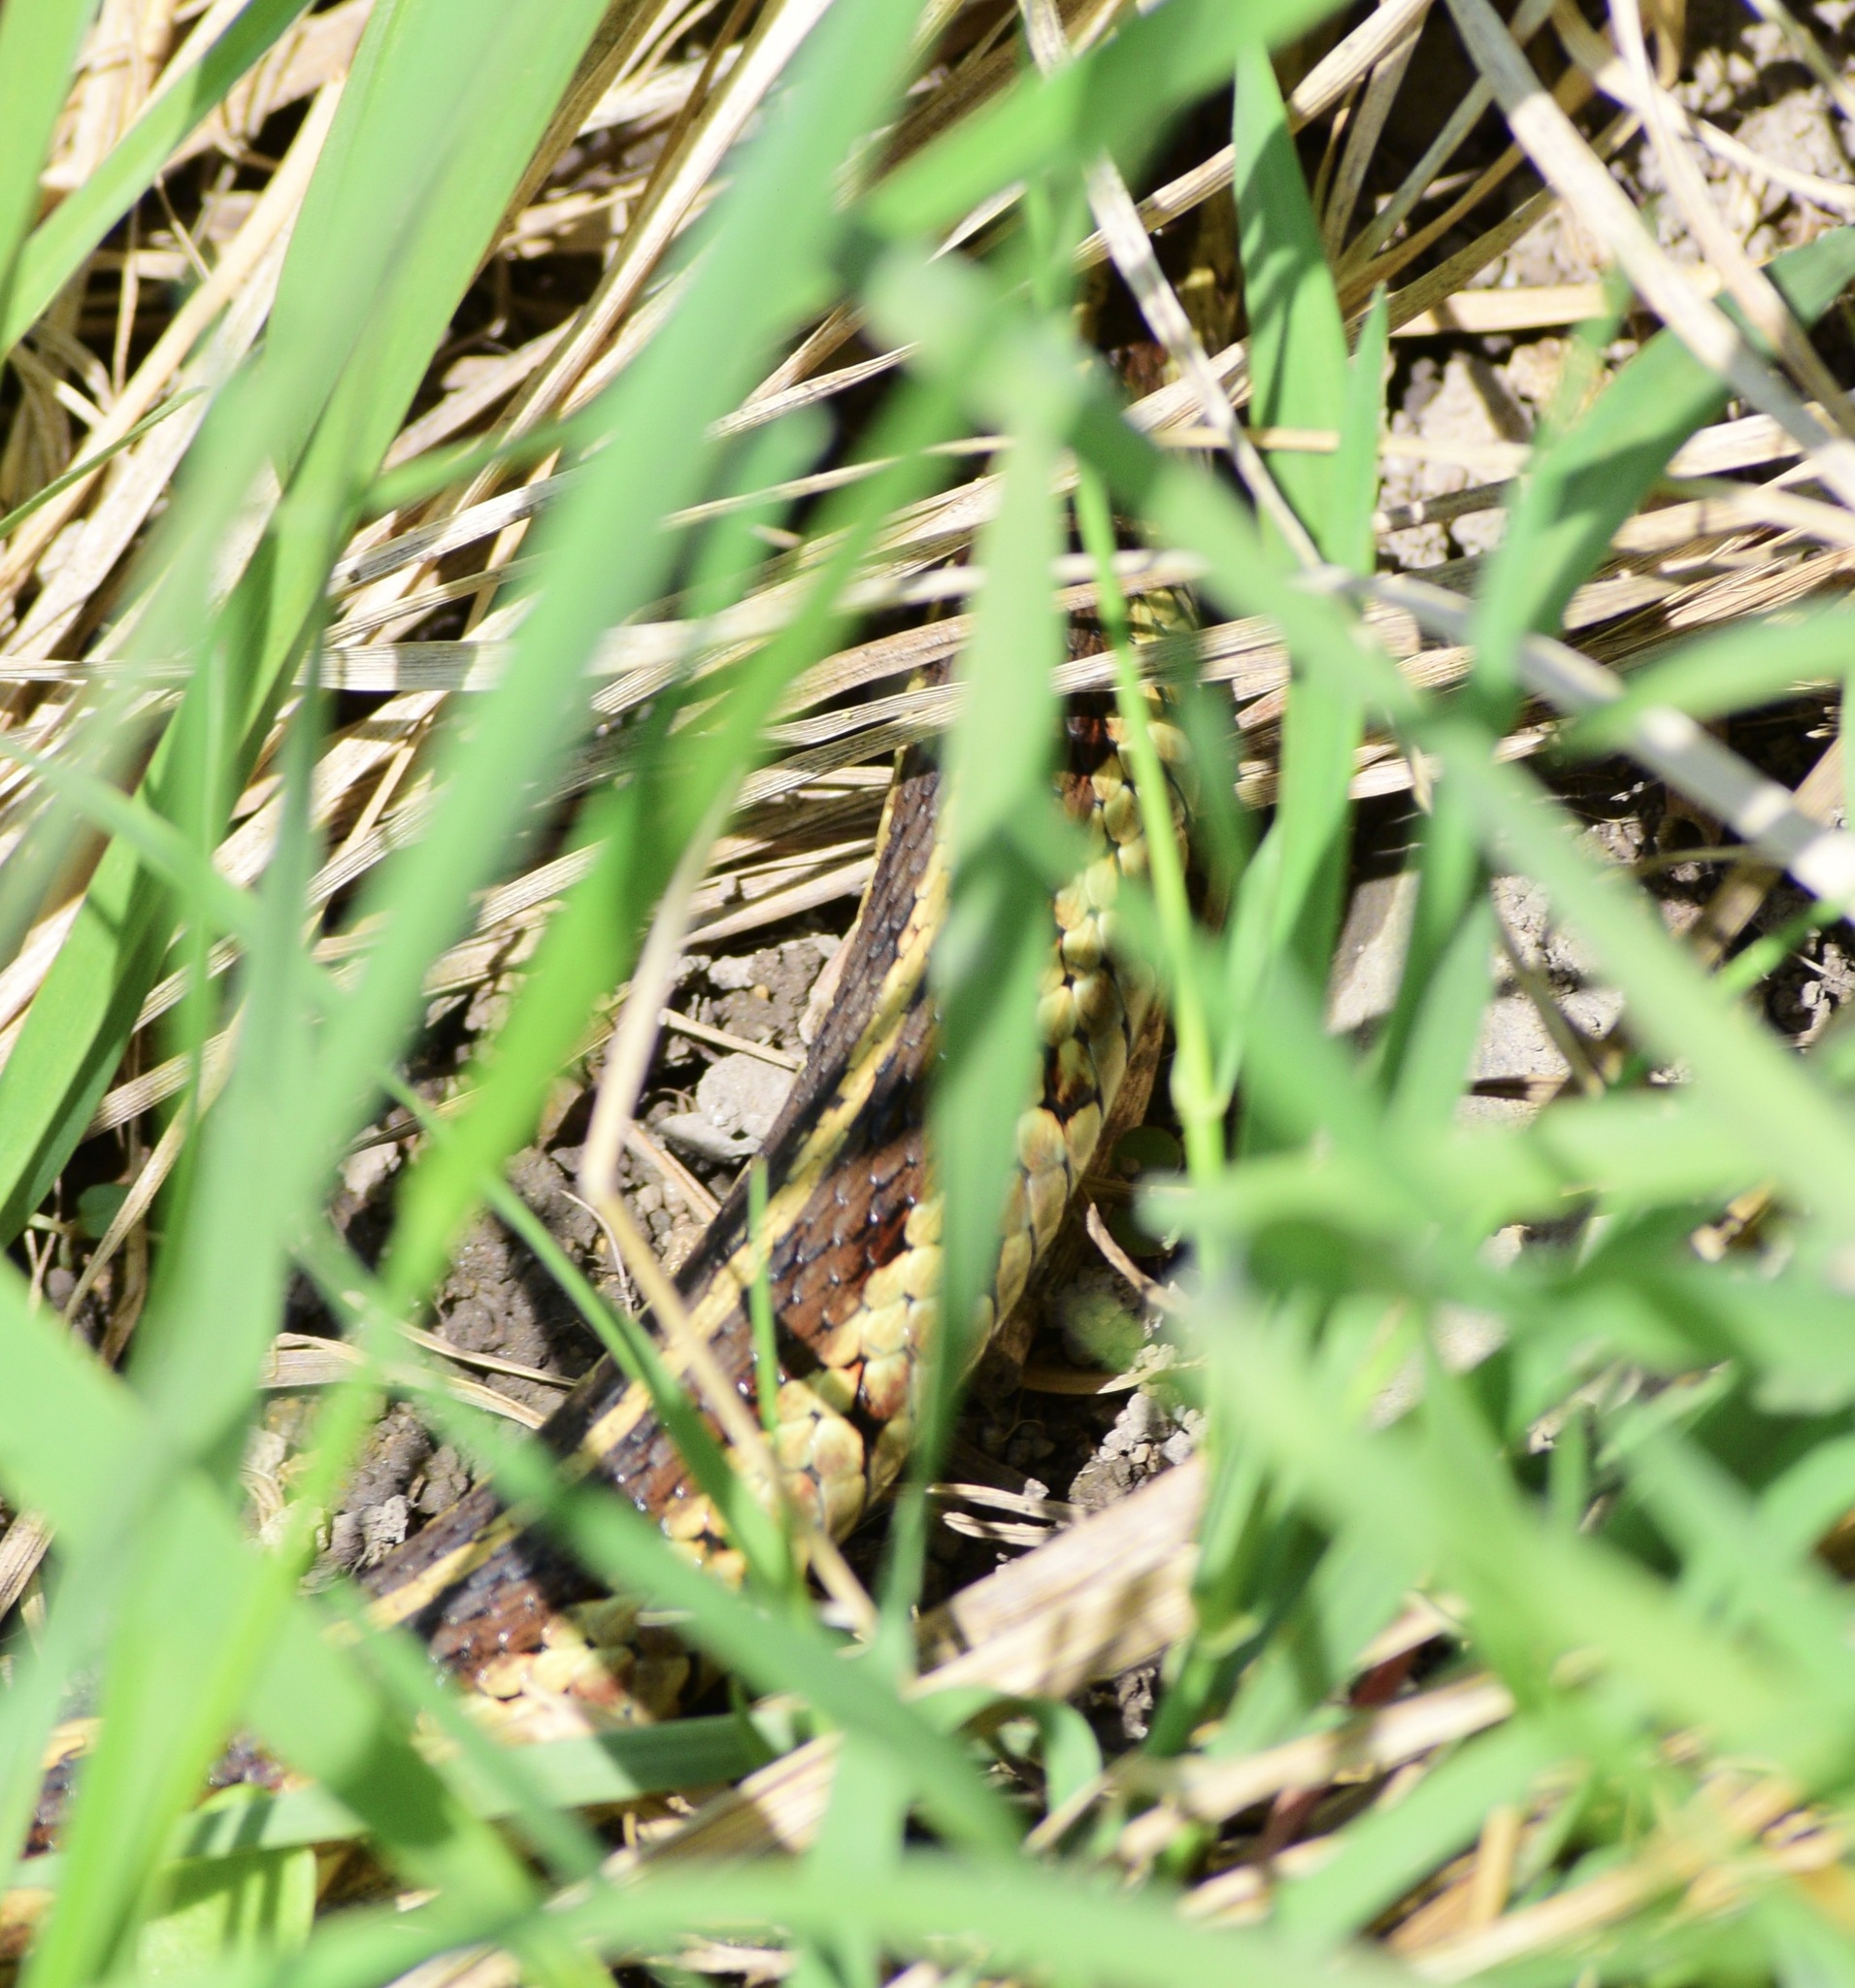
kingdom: Animalia
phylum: Chordata
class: Squamata
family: Colubridae
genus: Thamnophis
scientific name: Thamnophis sirtalis
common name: Common garter snake
